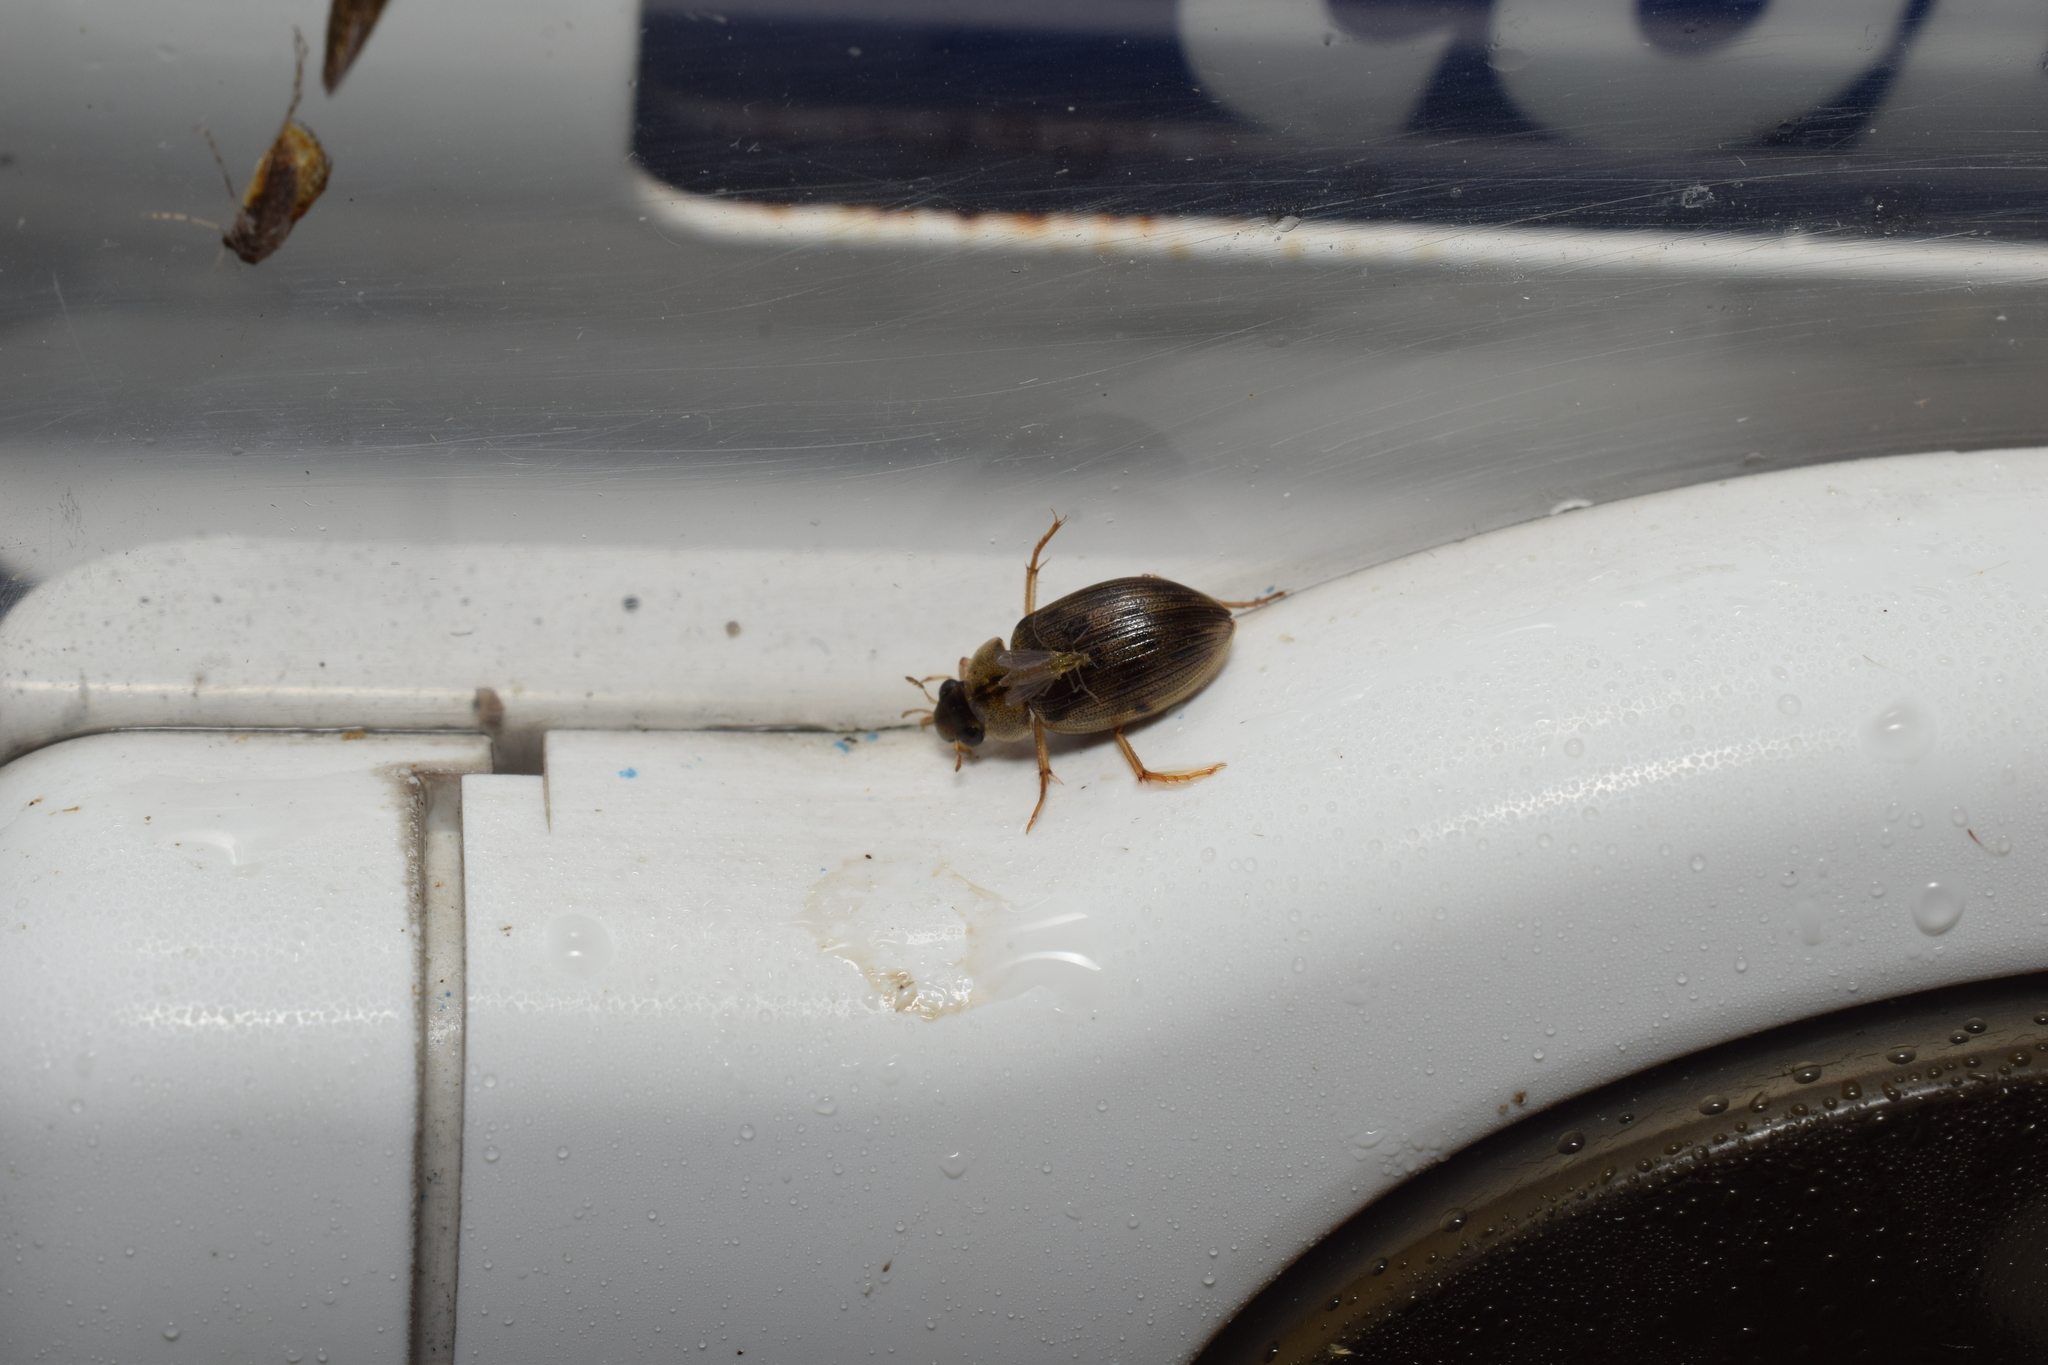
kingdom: Animalia
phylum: Arthropoda
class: Insecta
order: Coleoptera
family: Hydrophilidae
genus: Berosus
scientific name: Berosus punctipennis
